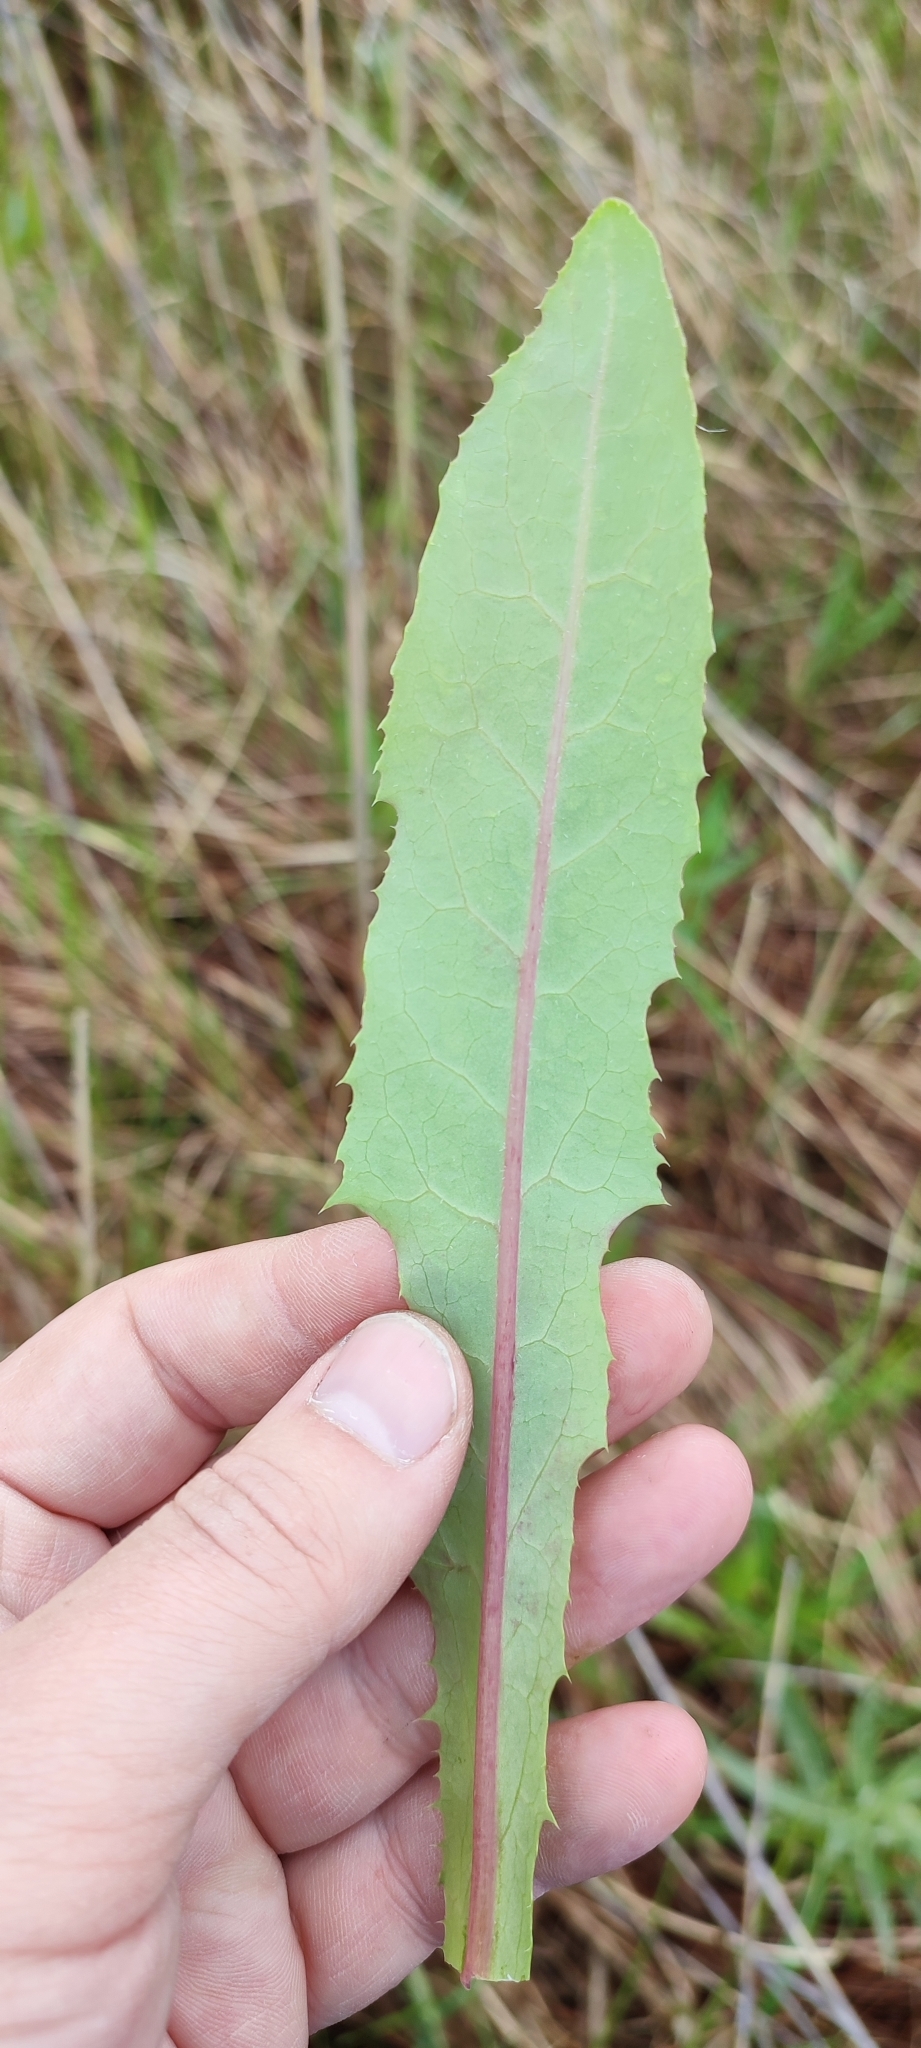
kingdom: Plantae
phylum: Tracheophyta
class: Magnoliopsida
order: Asterales
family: Asteraceae
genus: Sonchus
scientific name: Sonchus arvensis
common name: Perennial sow-thistle
